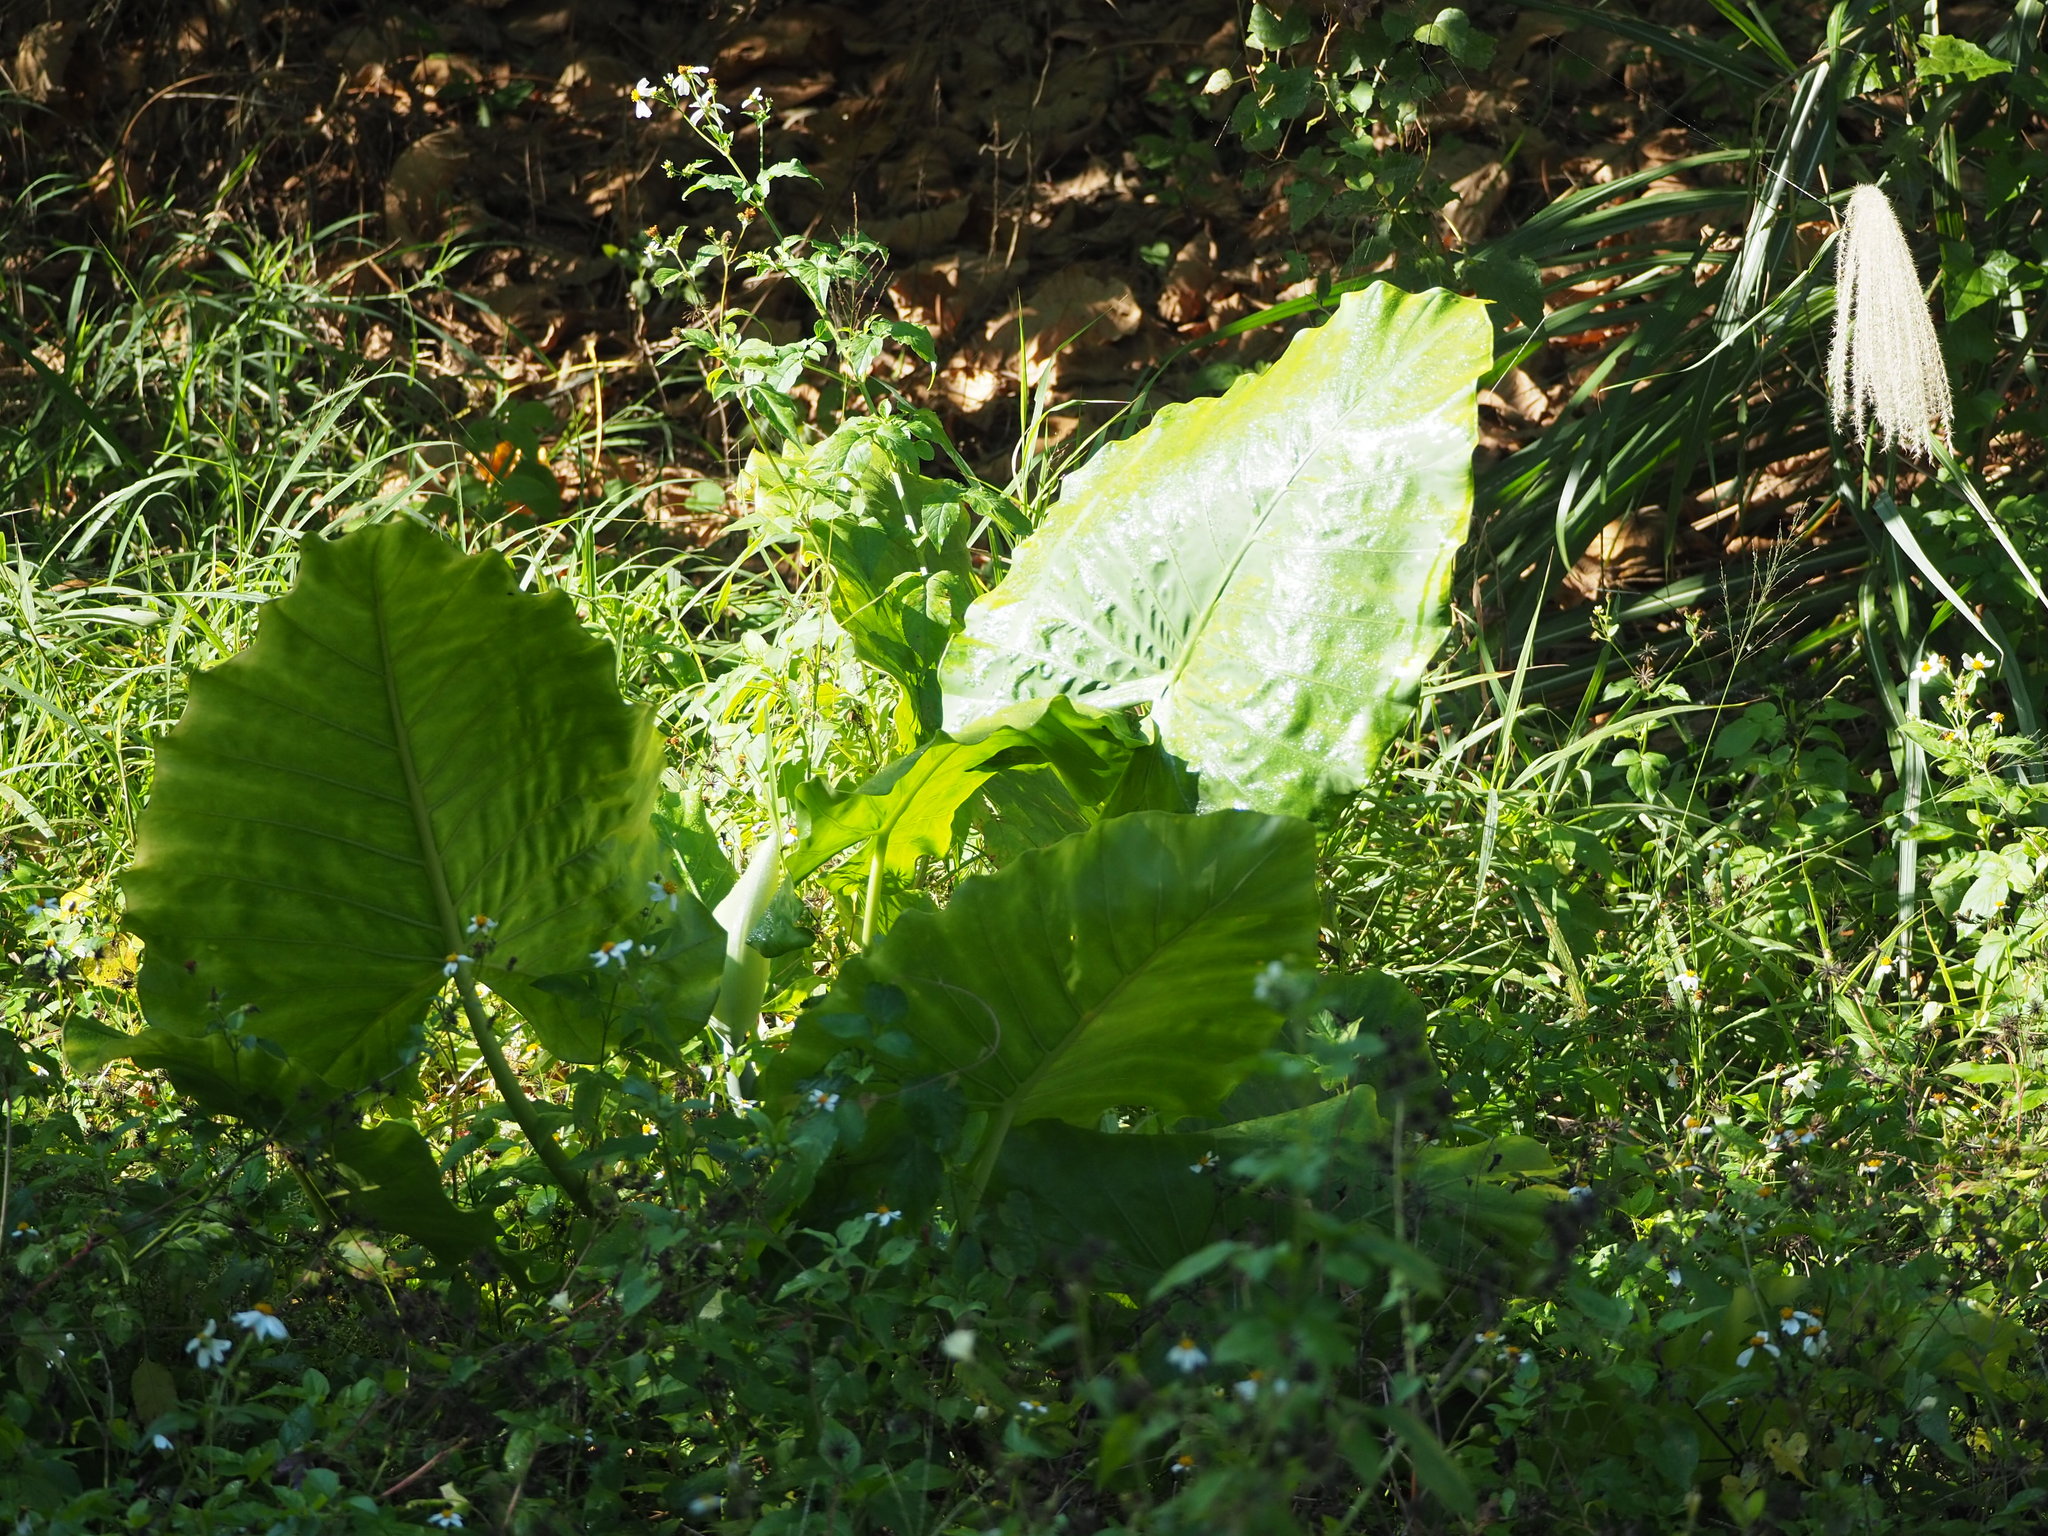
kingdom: Plantae
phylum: Tracheophyta
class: Liliopsida
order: Alismatales
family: Araceae
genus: Alocasia
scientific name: Alocasia odora
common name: Asian taro
